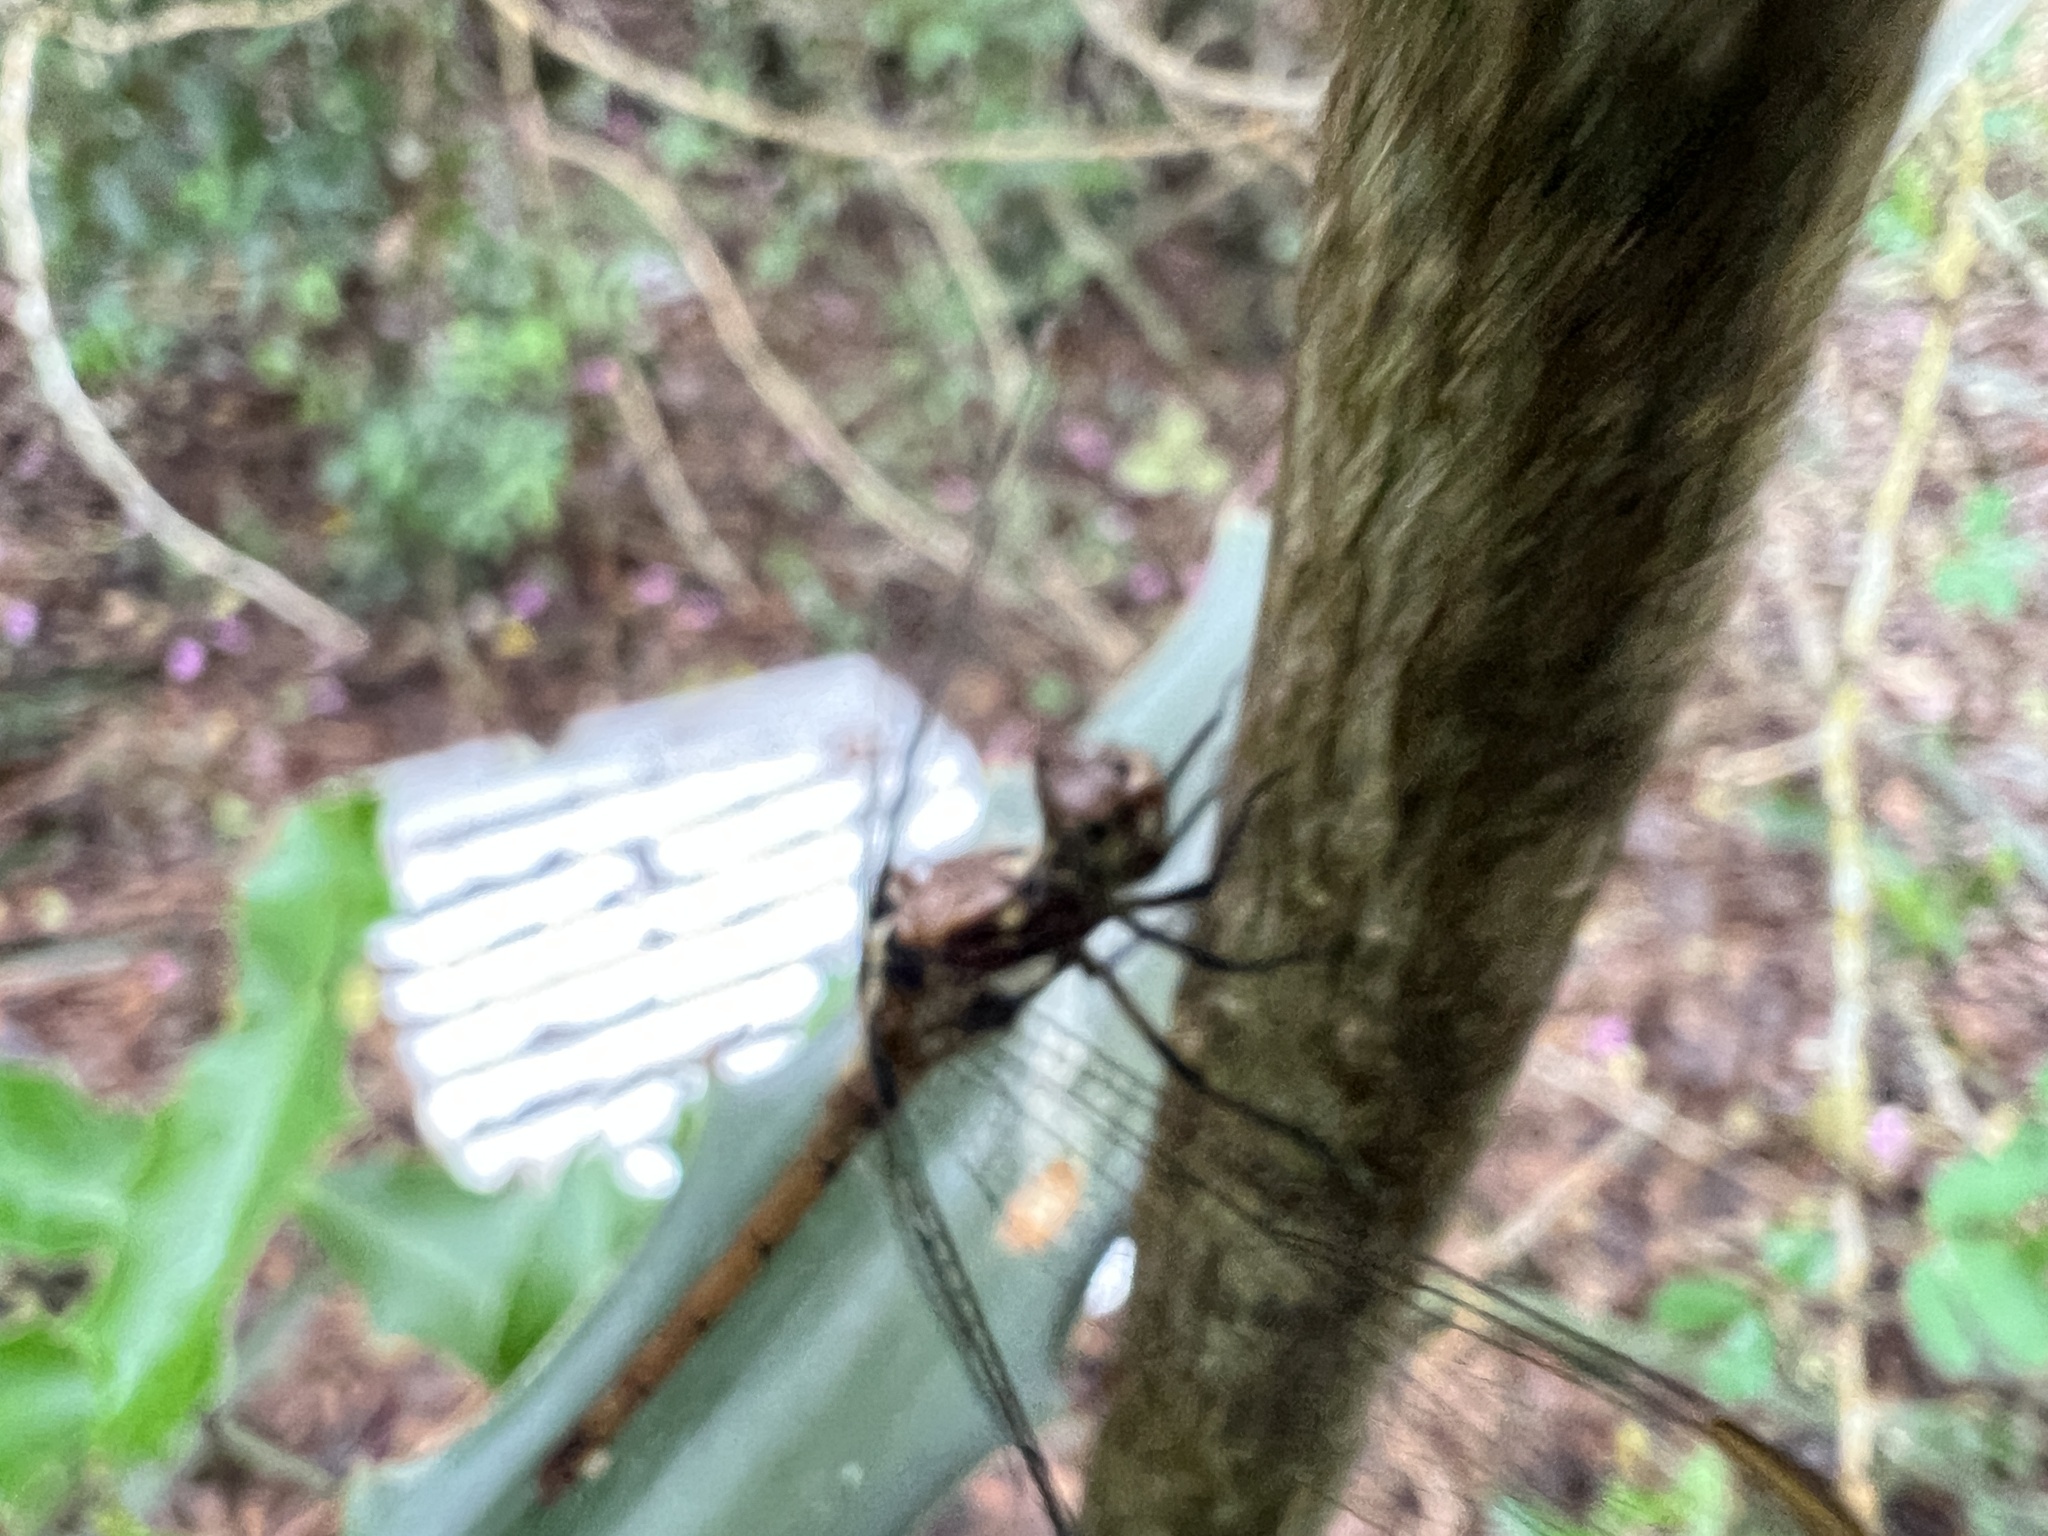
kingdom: Animalia
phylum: Arthropoda
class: Insecta
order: Odonata
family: Libellulidae
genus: Orthemis
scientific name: Orthemis philipi
